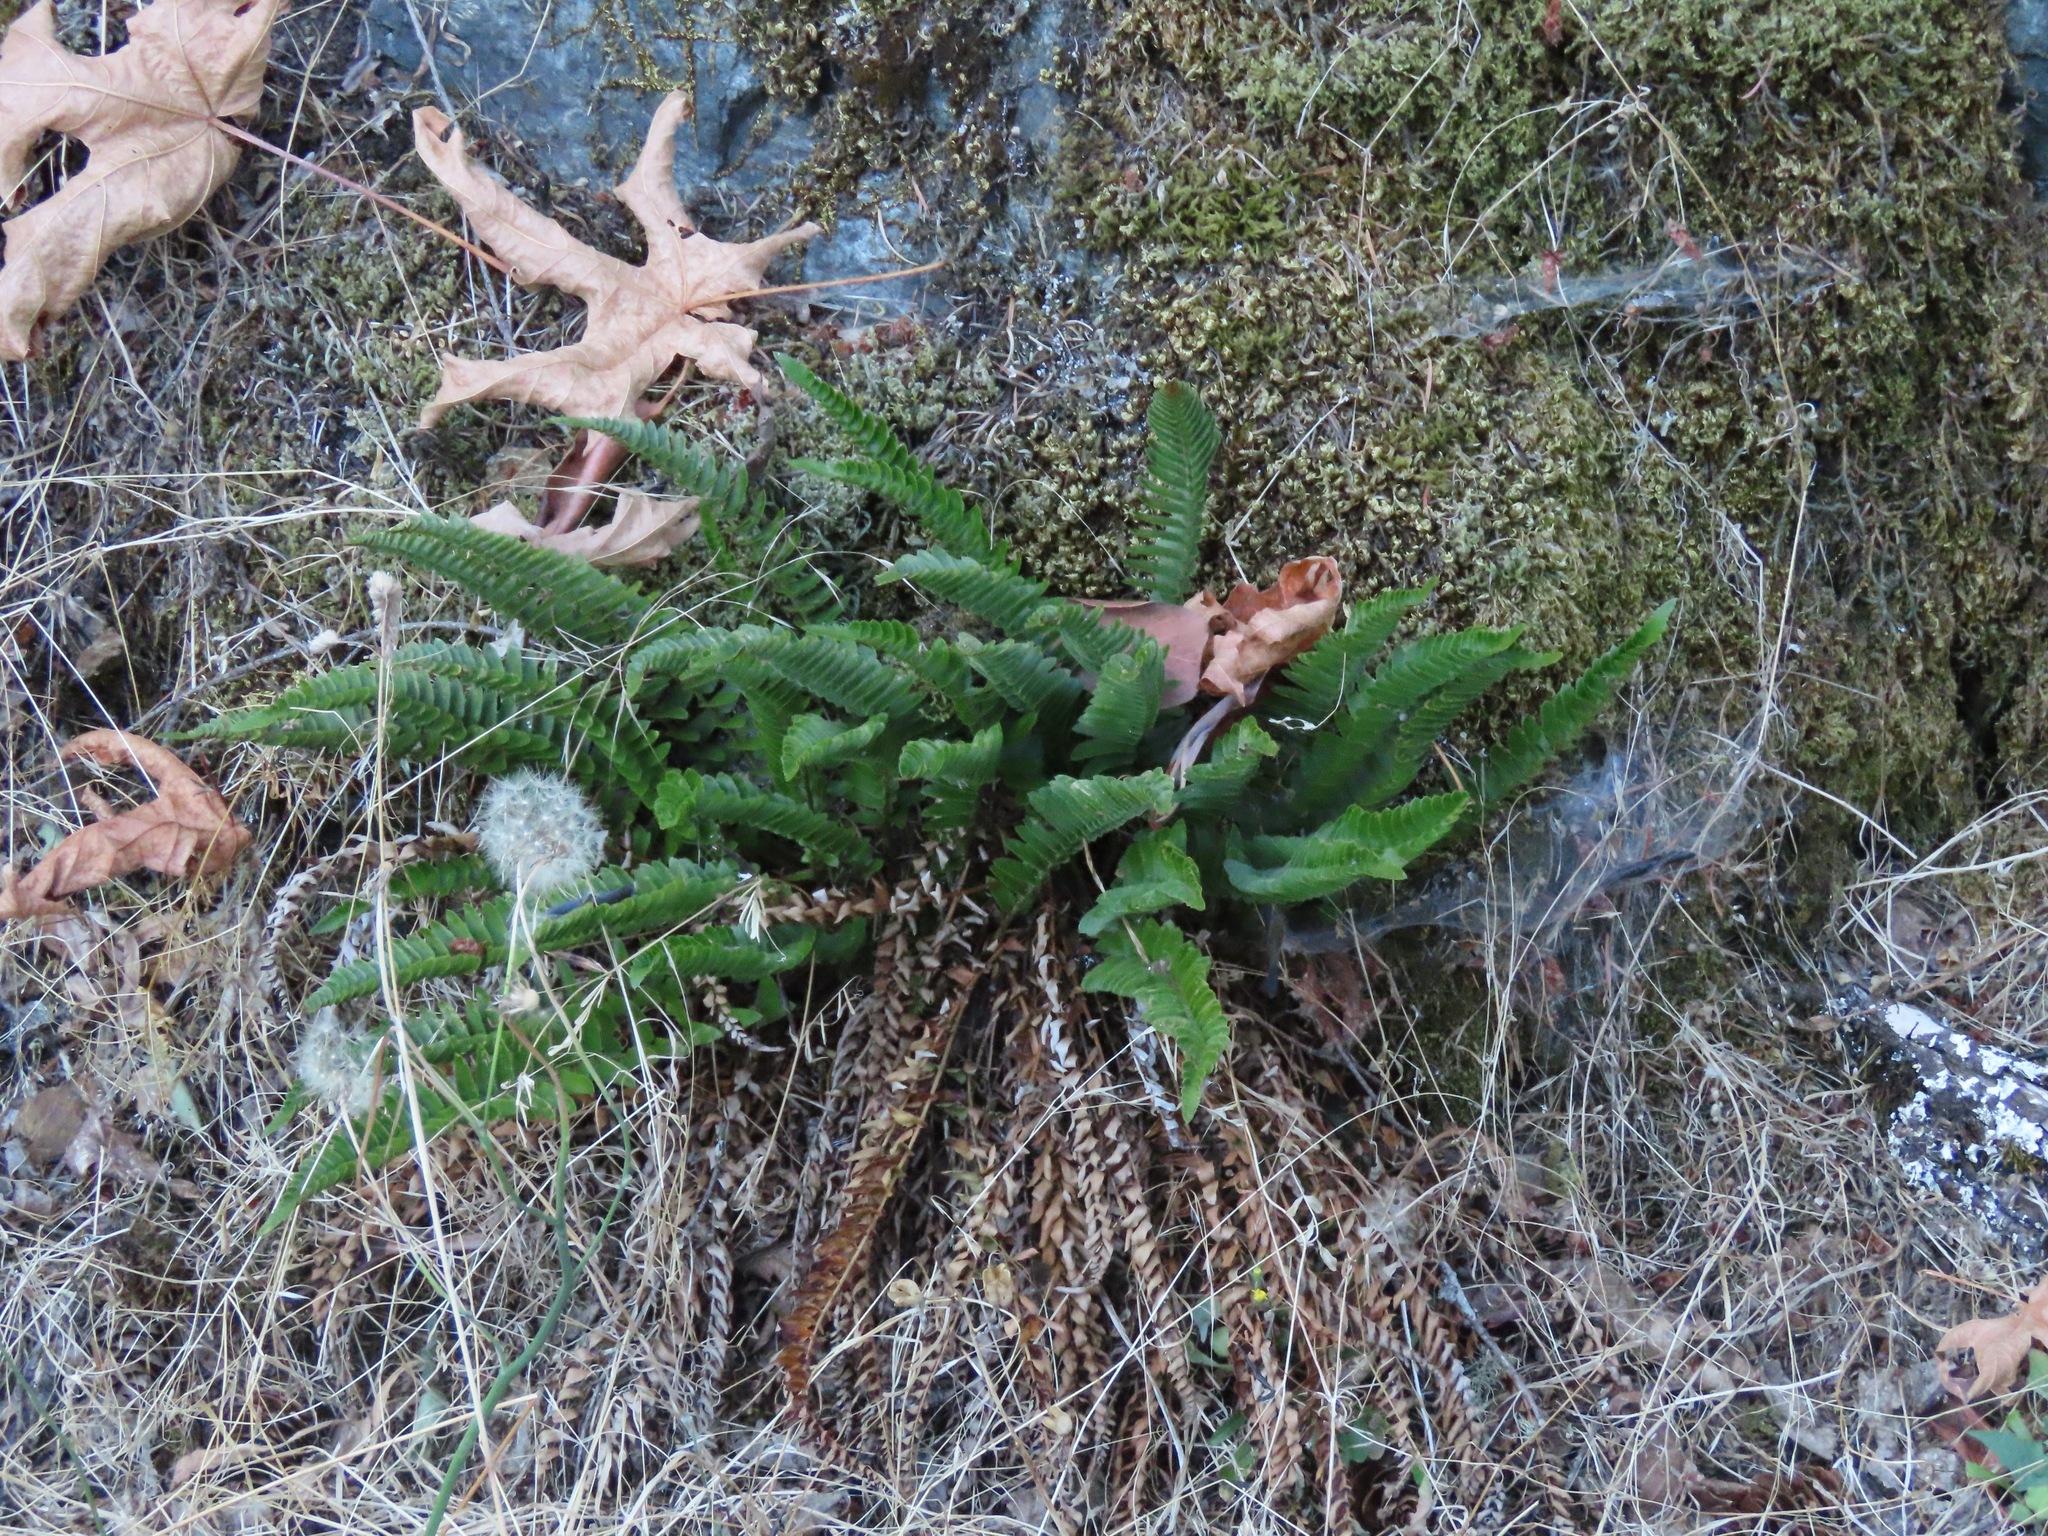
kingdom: Plantae
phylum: Tracheophyta
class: Polypodiopsida
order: Polypodiales
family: Dryopteridaceae
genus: Polystichum
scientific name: Polystichum imbricans
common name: Dwarf western sword fern
